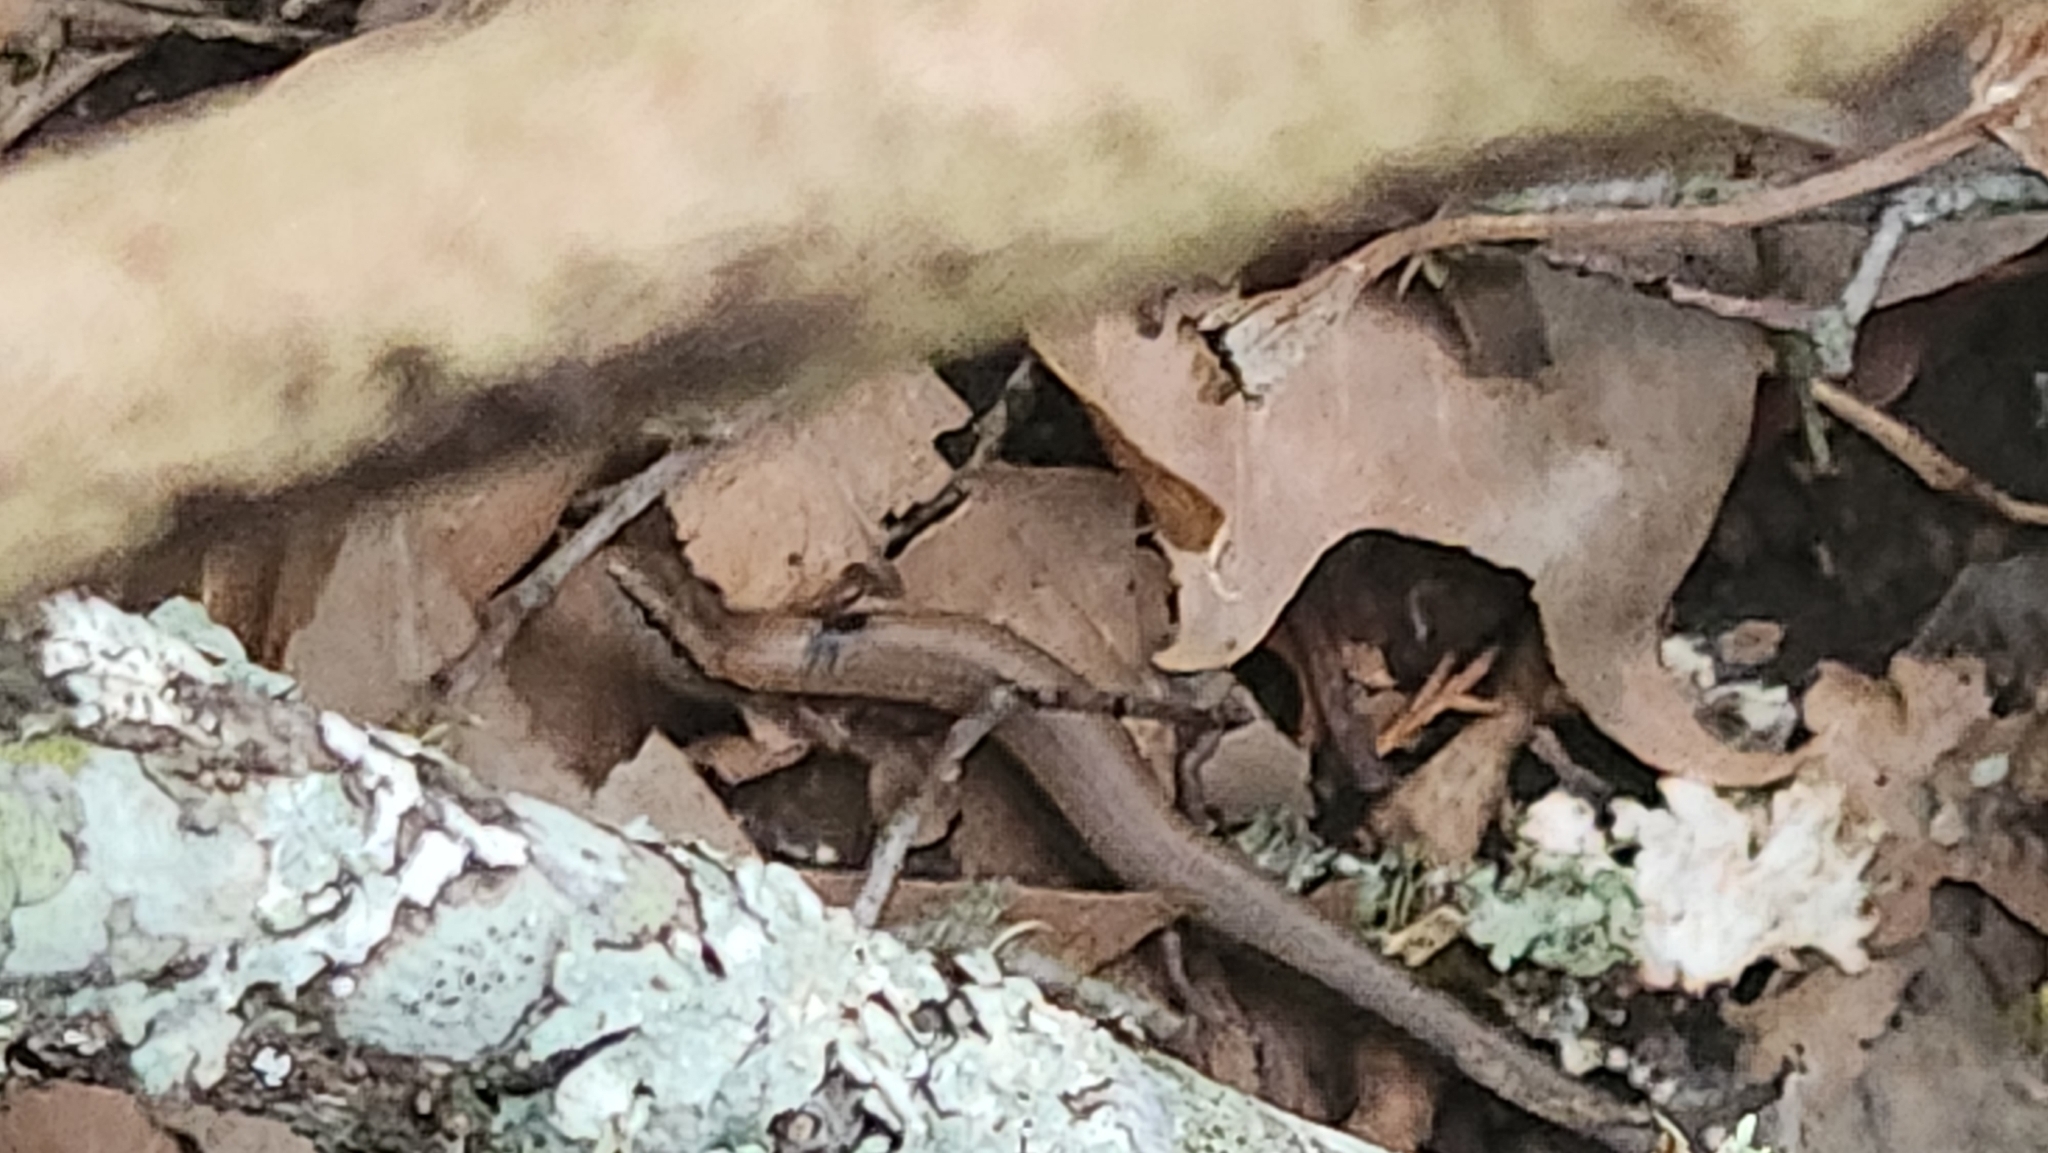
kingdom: Animalia
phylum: Chordata
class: Squamata
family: Scincidae
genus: Scincella
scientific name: Scincella lateralis
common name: Ground skink
